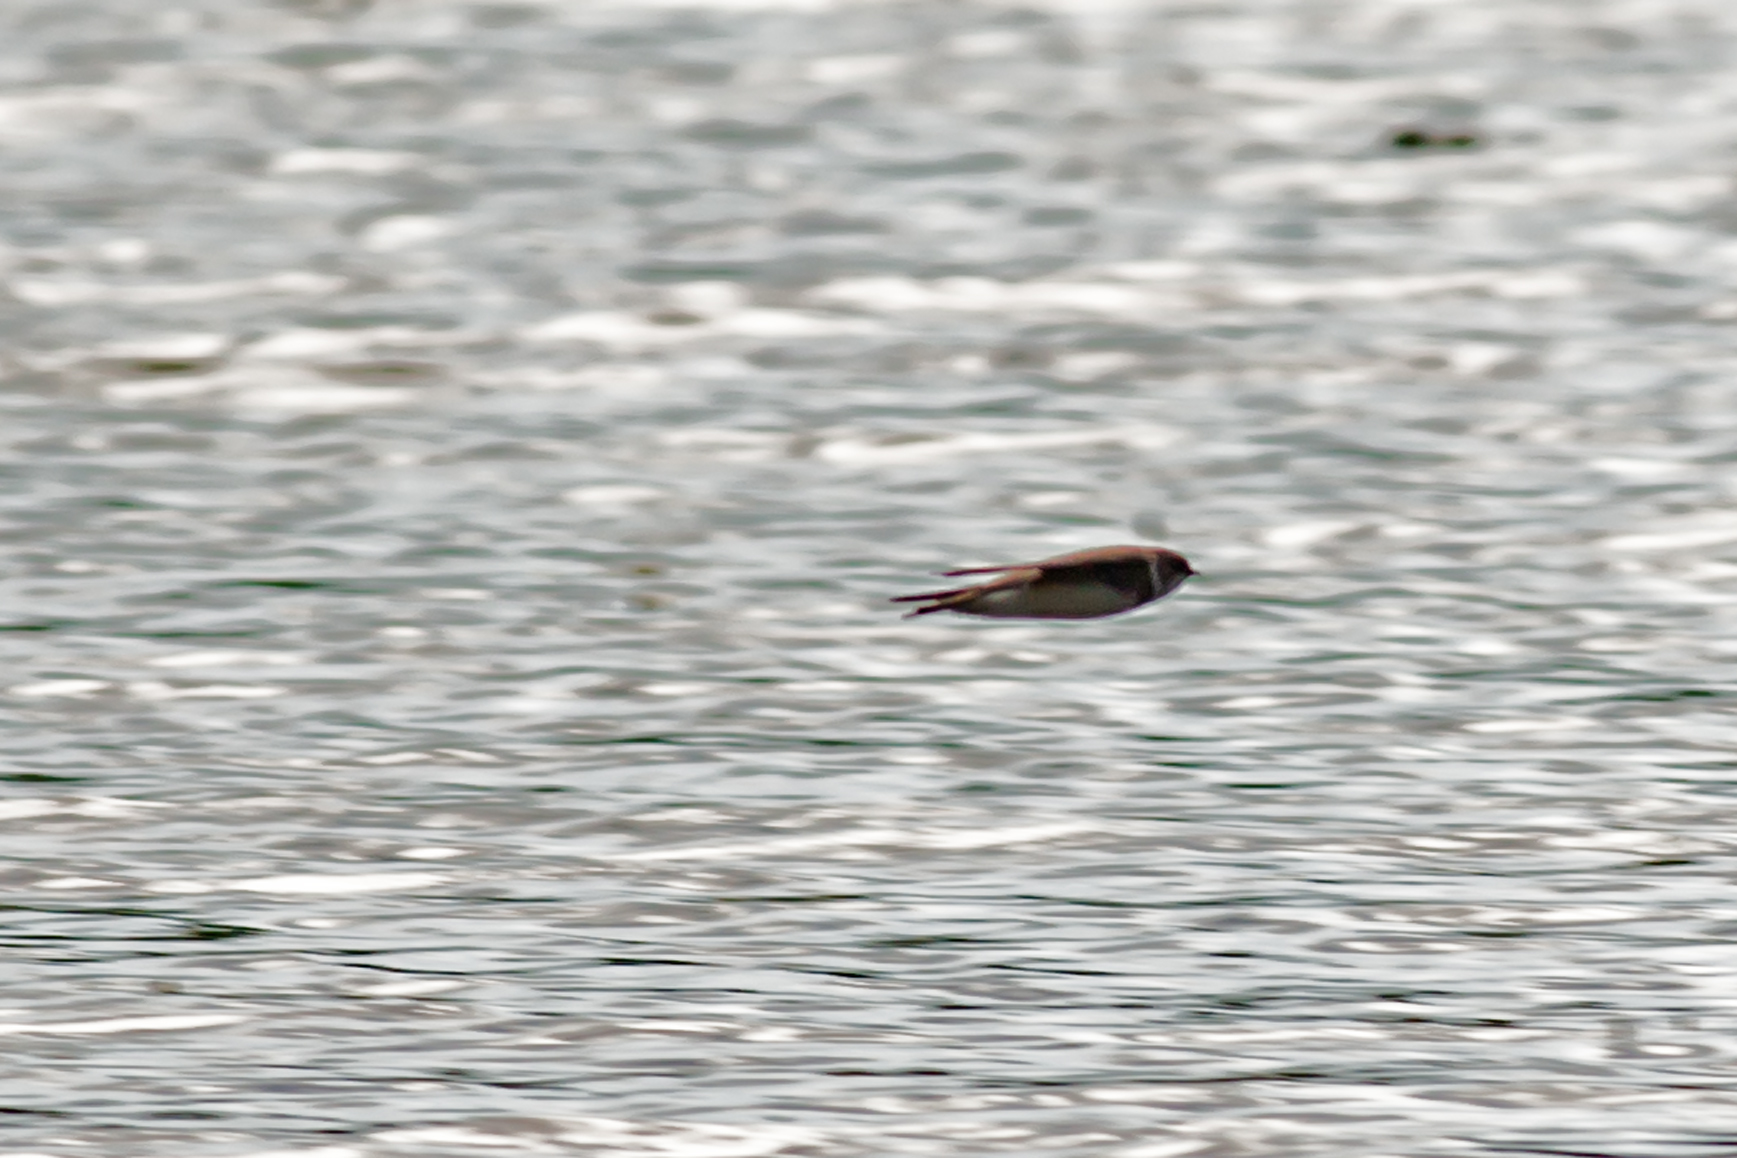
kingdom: Animalia
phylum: Chordata
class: Aves
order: Passeriformes
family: Hirundinidae
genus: Riparia
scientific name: Riparia riparia
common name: Sand martin
